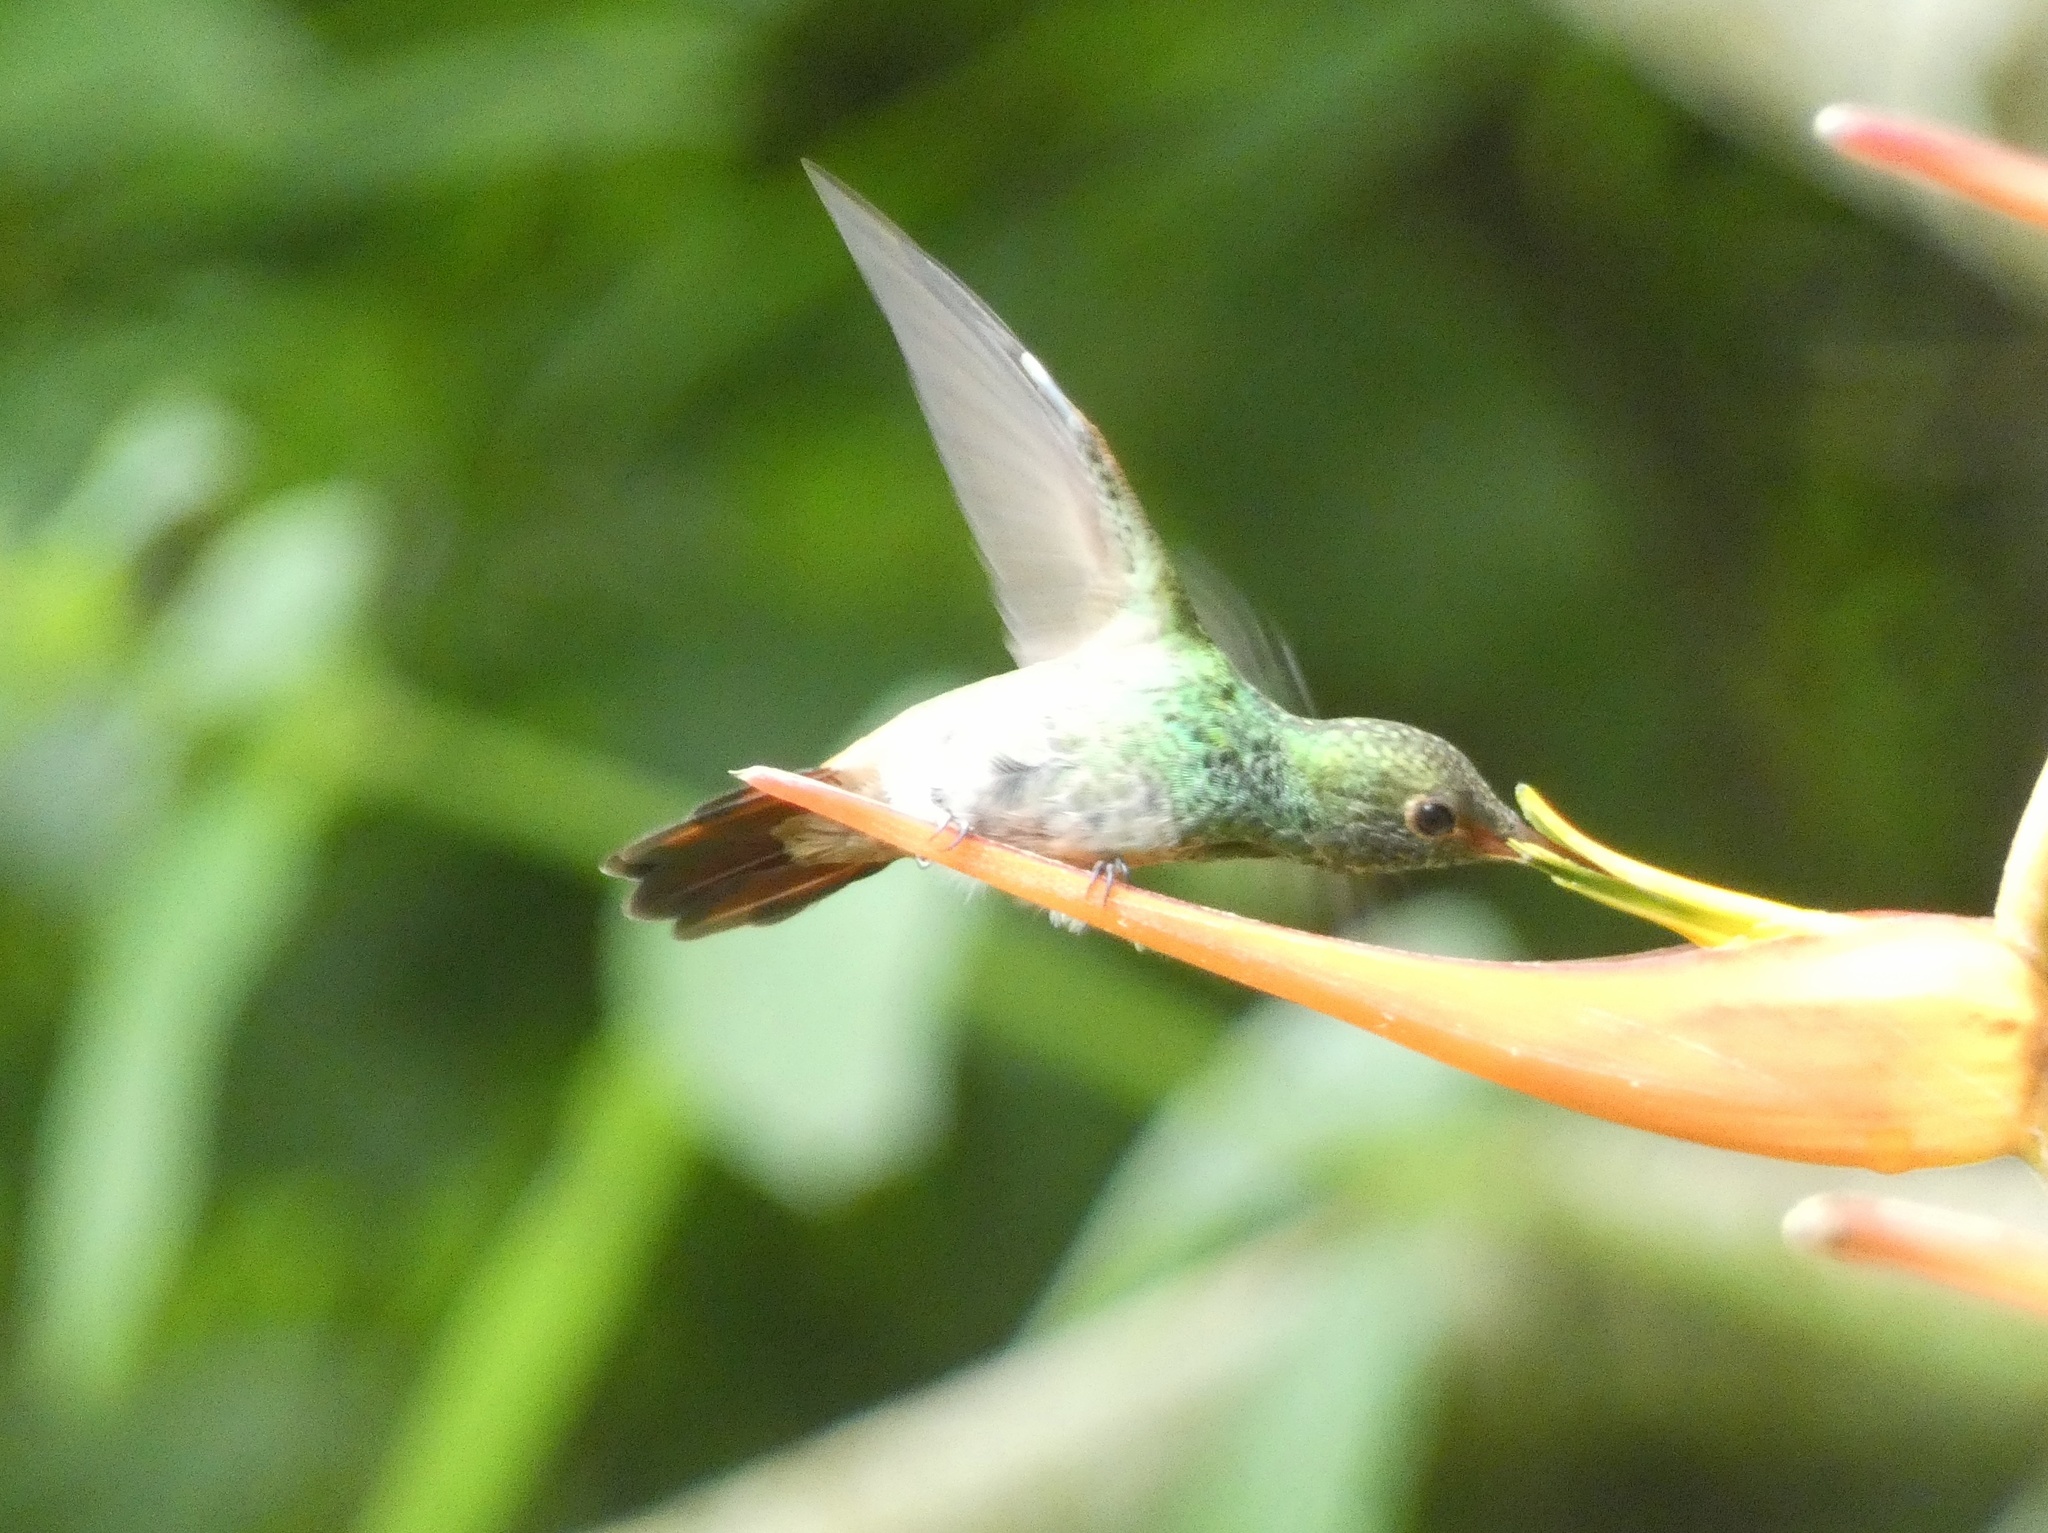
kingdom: Animalia
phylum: Chordata
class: Aves
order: Apodiformes
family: Trochilidae
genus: Amazilia
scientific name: Amazilia tzacatl
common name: Rufous-tailed hummingbird
